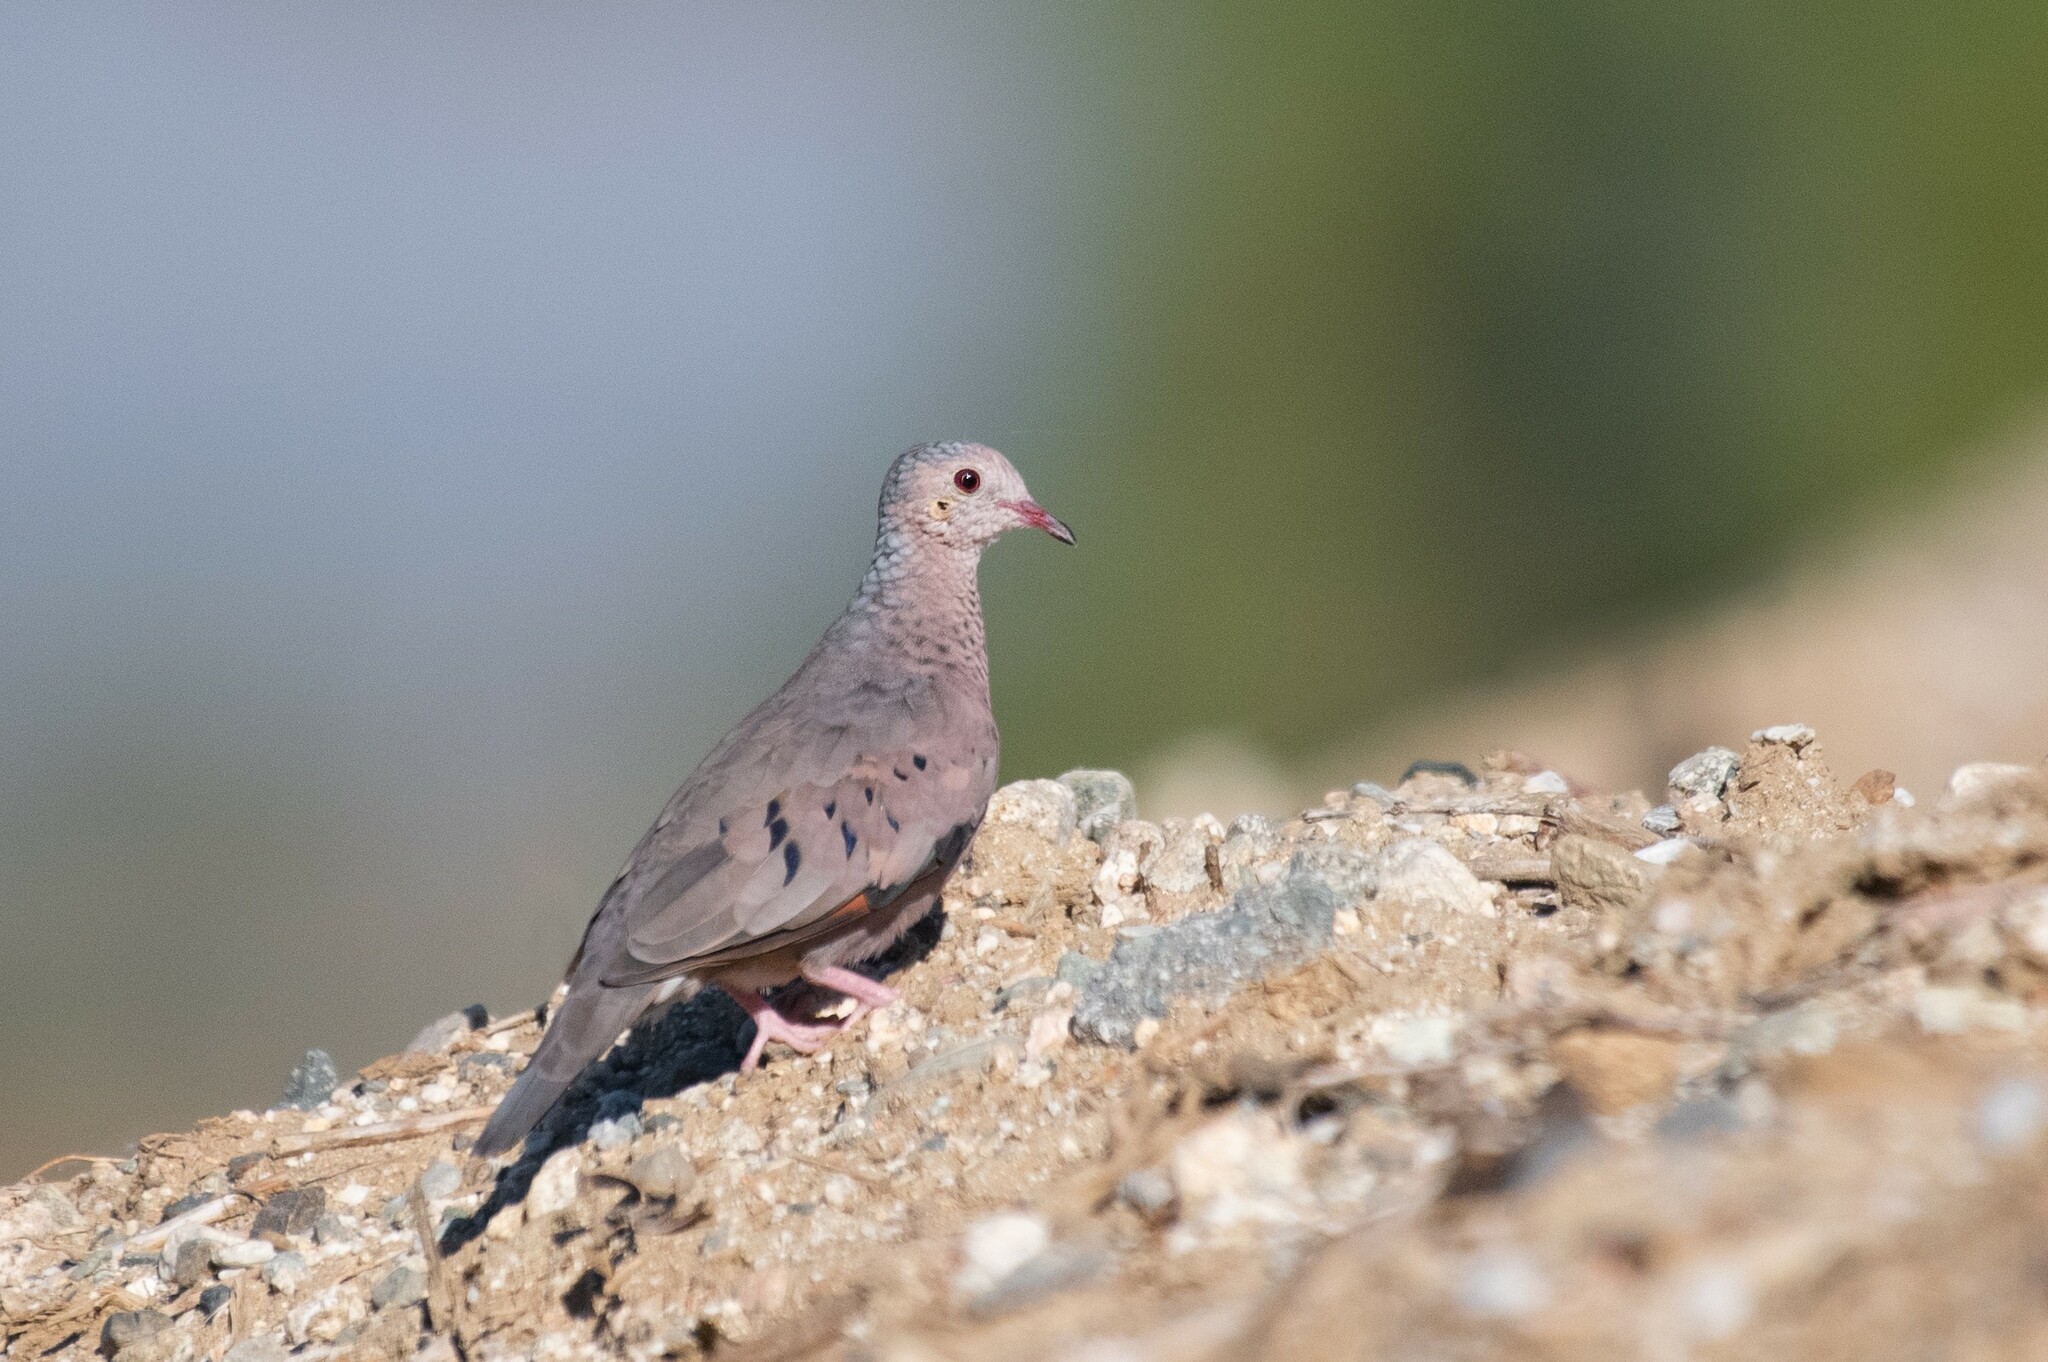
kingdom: Animalia
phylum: Chordata
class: Aves
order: Columbiformes
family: Columbidae
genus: Columbina
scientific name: Columbina passerina
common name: Common ground-dove
